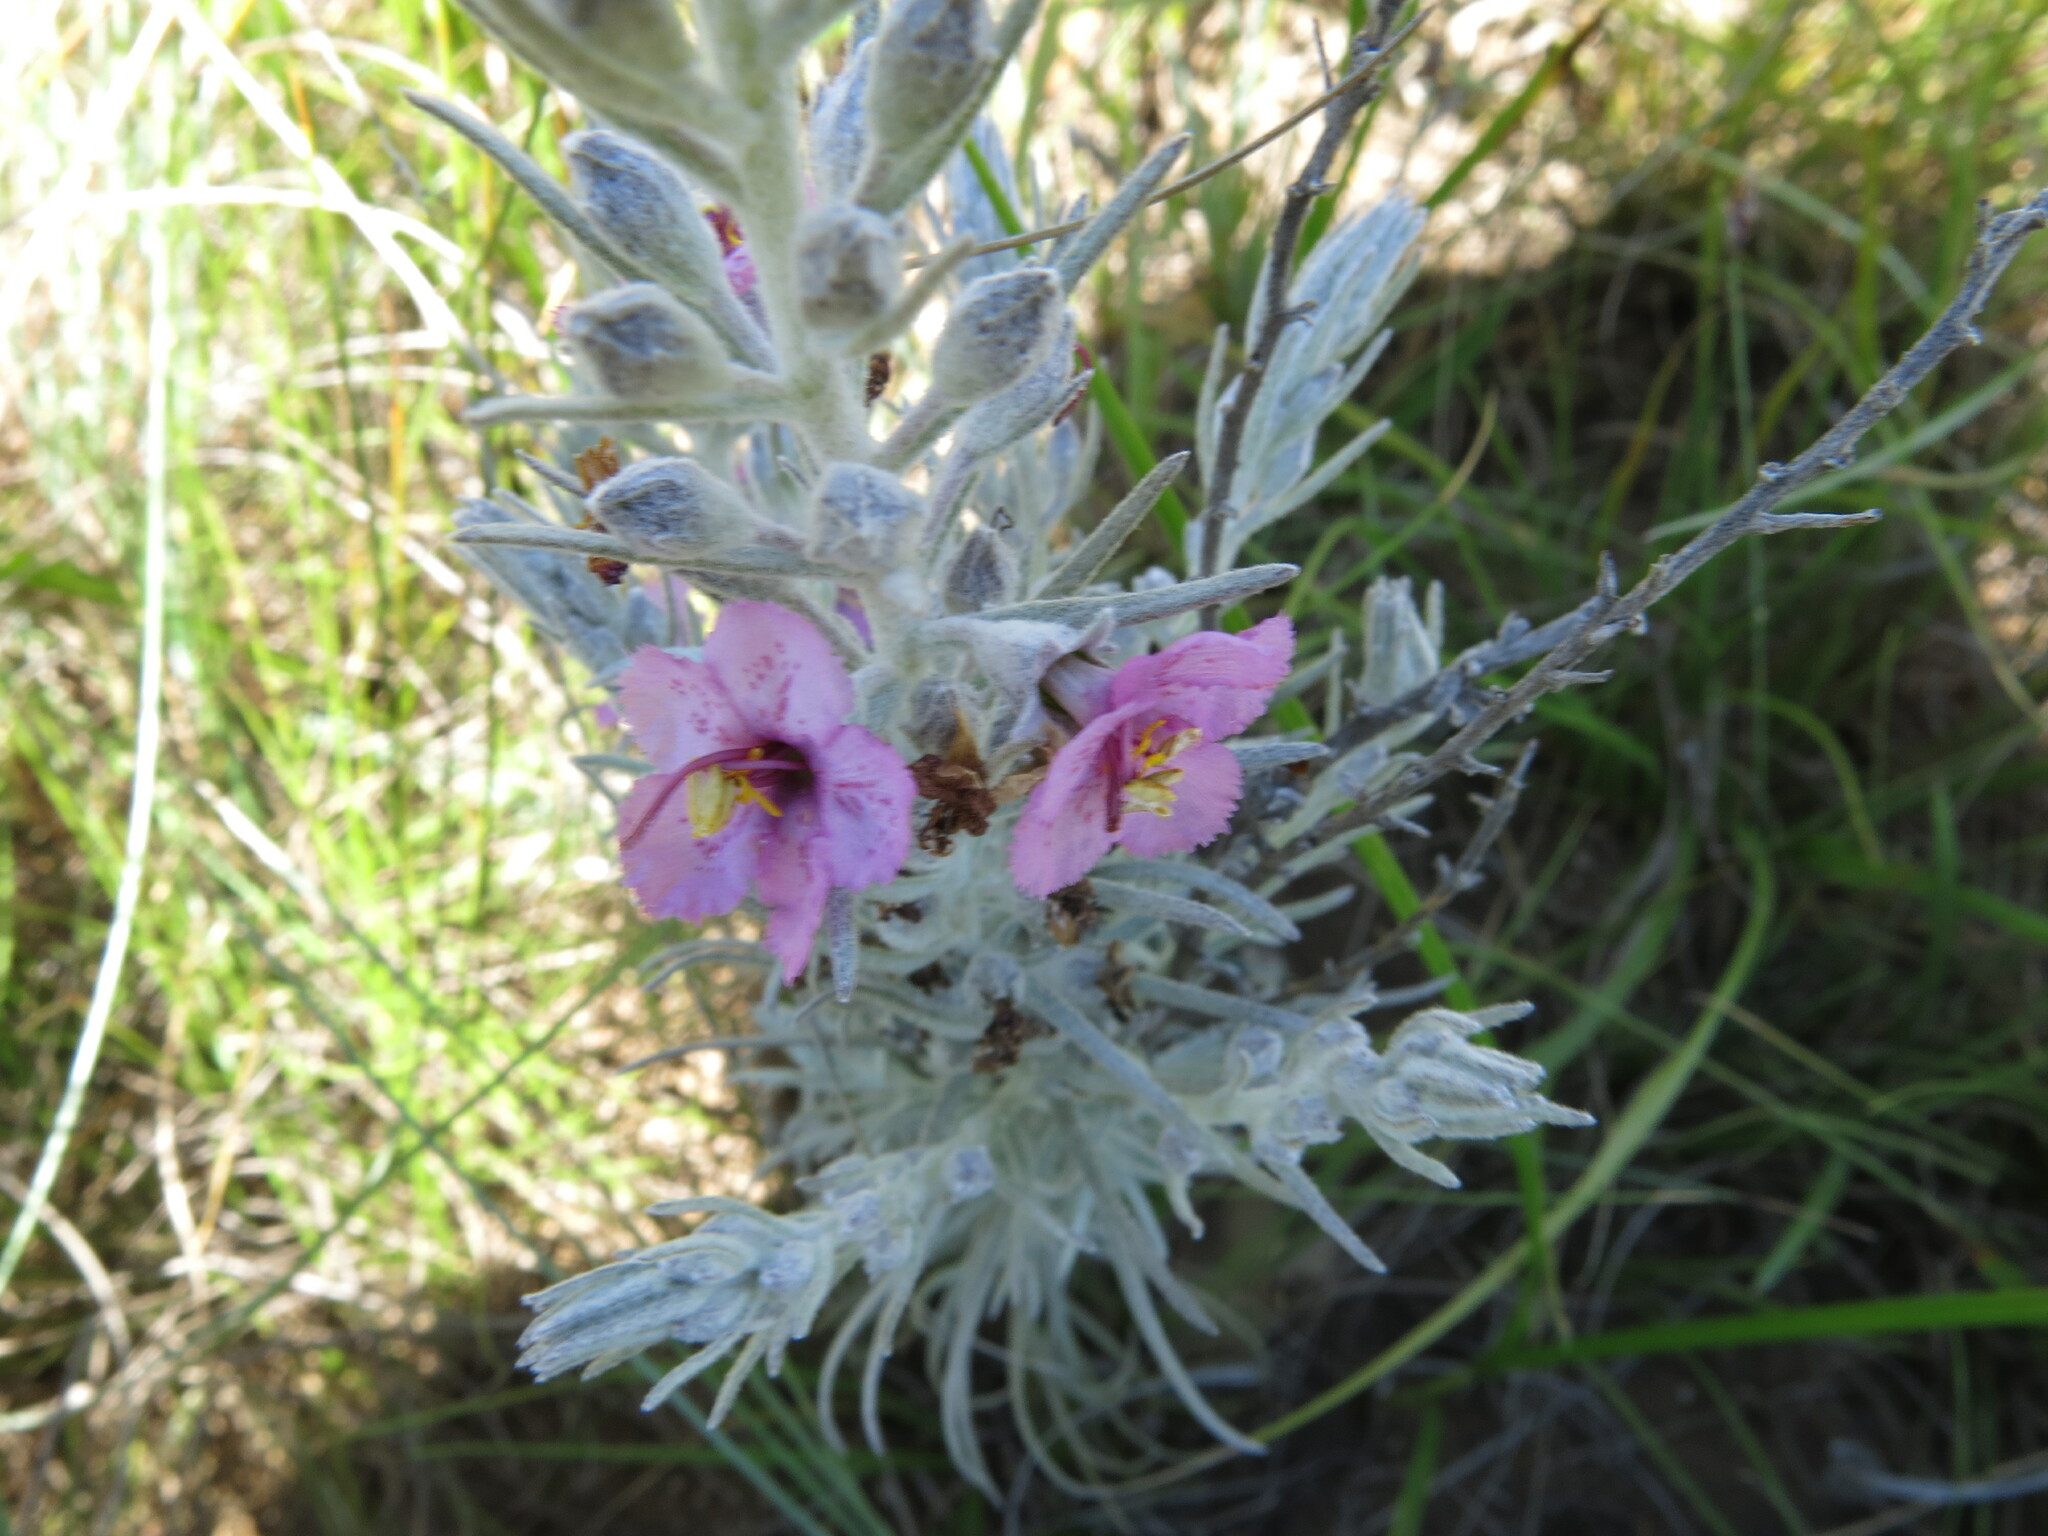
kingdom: Plantae
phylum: Tracheophyta
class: Magnoliopsida
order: Lamiales
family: Orobanchaceae
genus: Sopubia
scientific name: Sopubia cana
